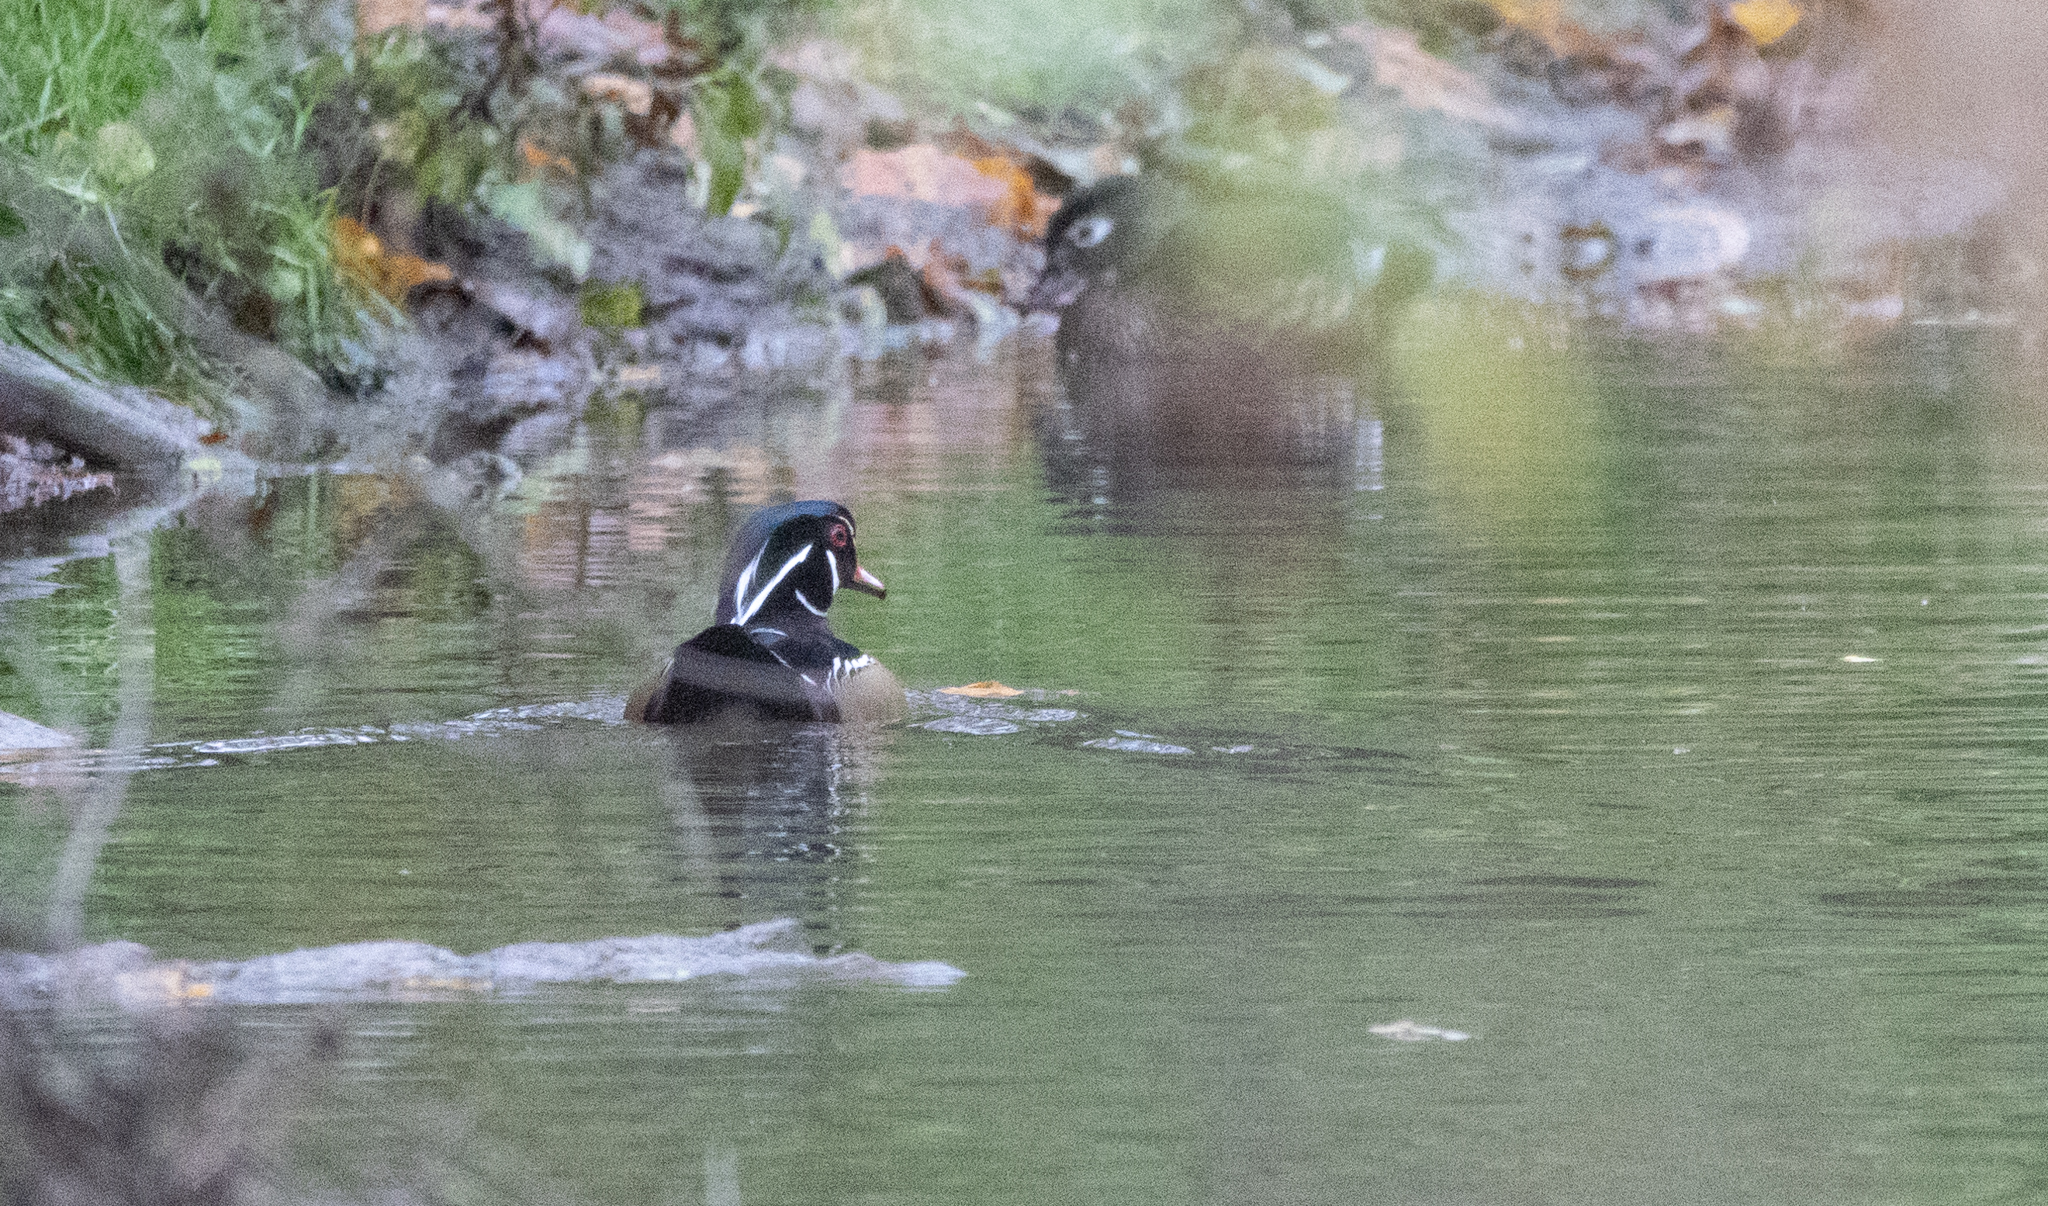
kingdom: Animalia
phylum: Chordata
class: Aves
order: Anseriformes
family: Anatidae
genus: Aix
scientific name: Aix sponsa
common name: Wood duck
